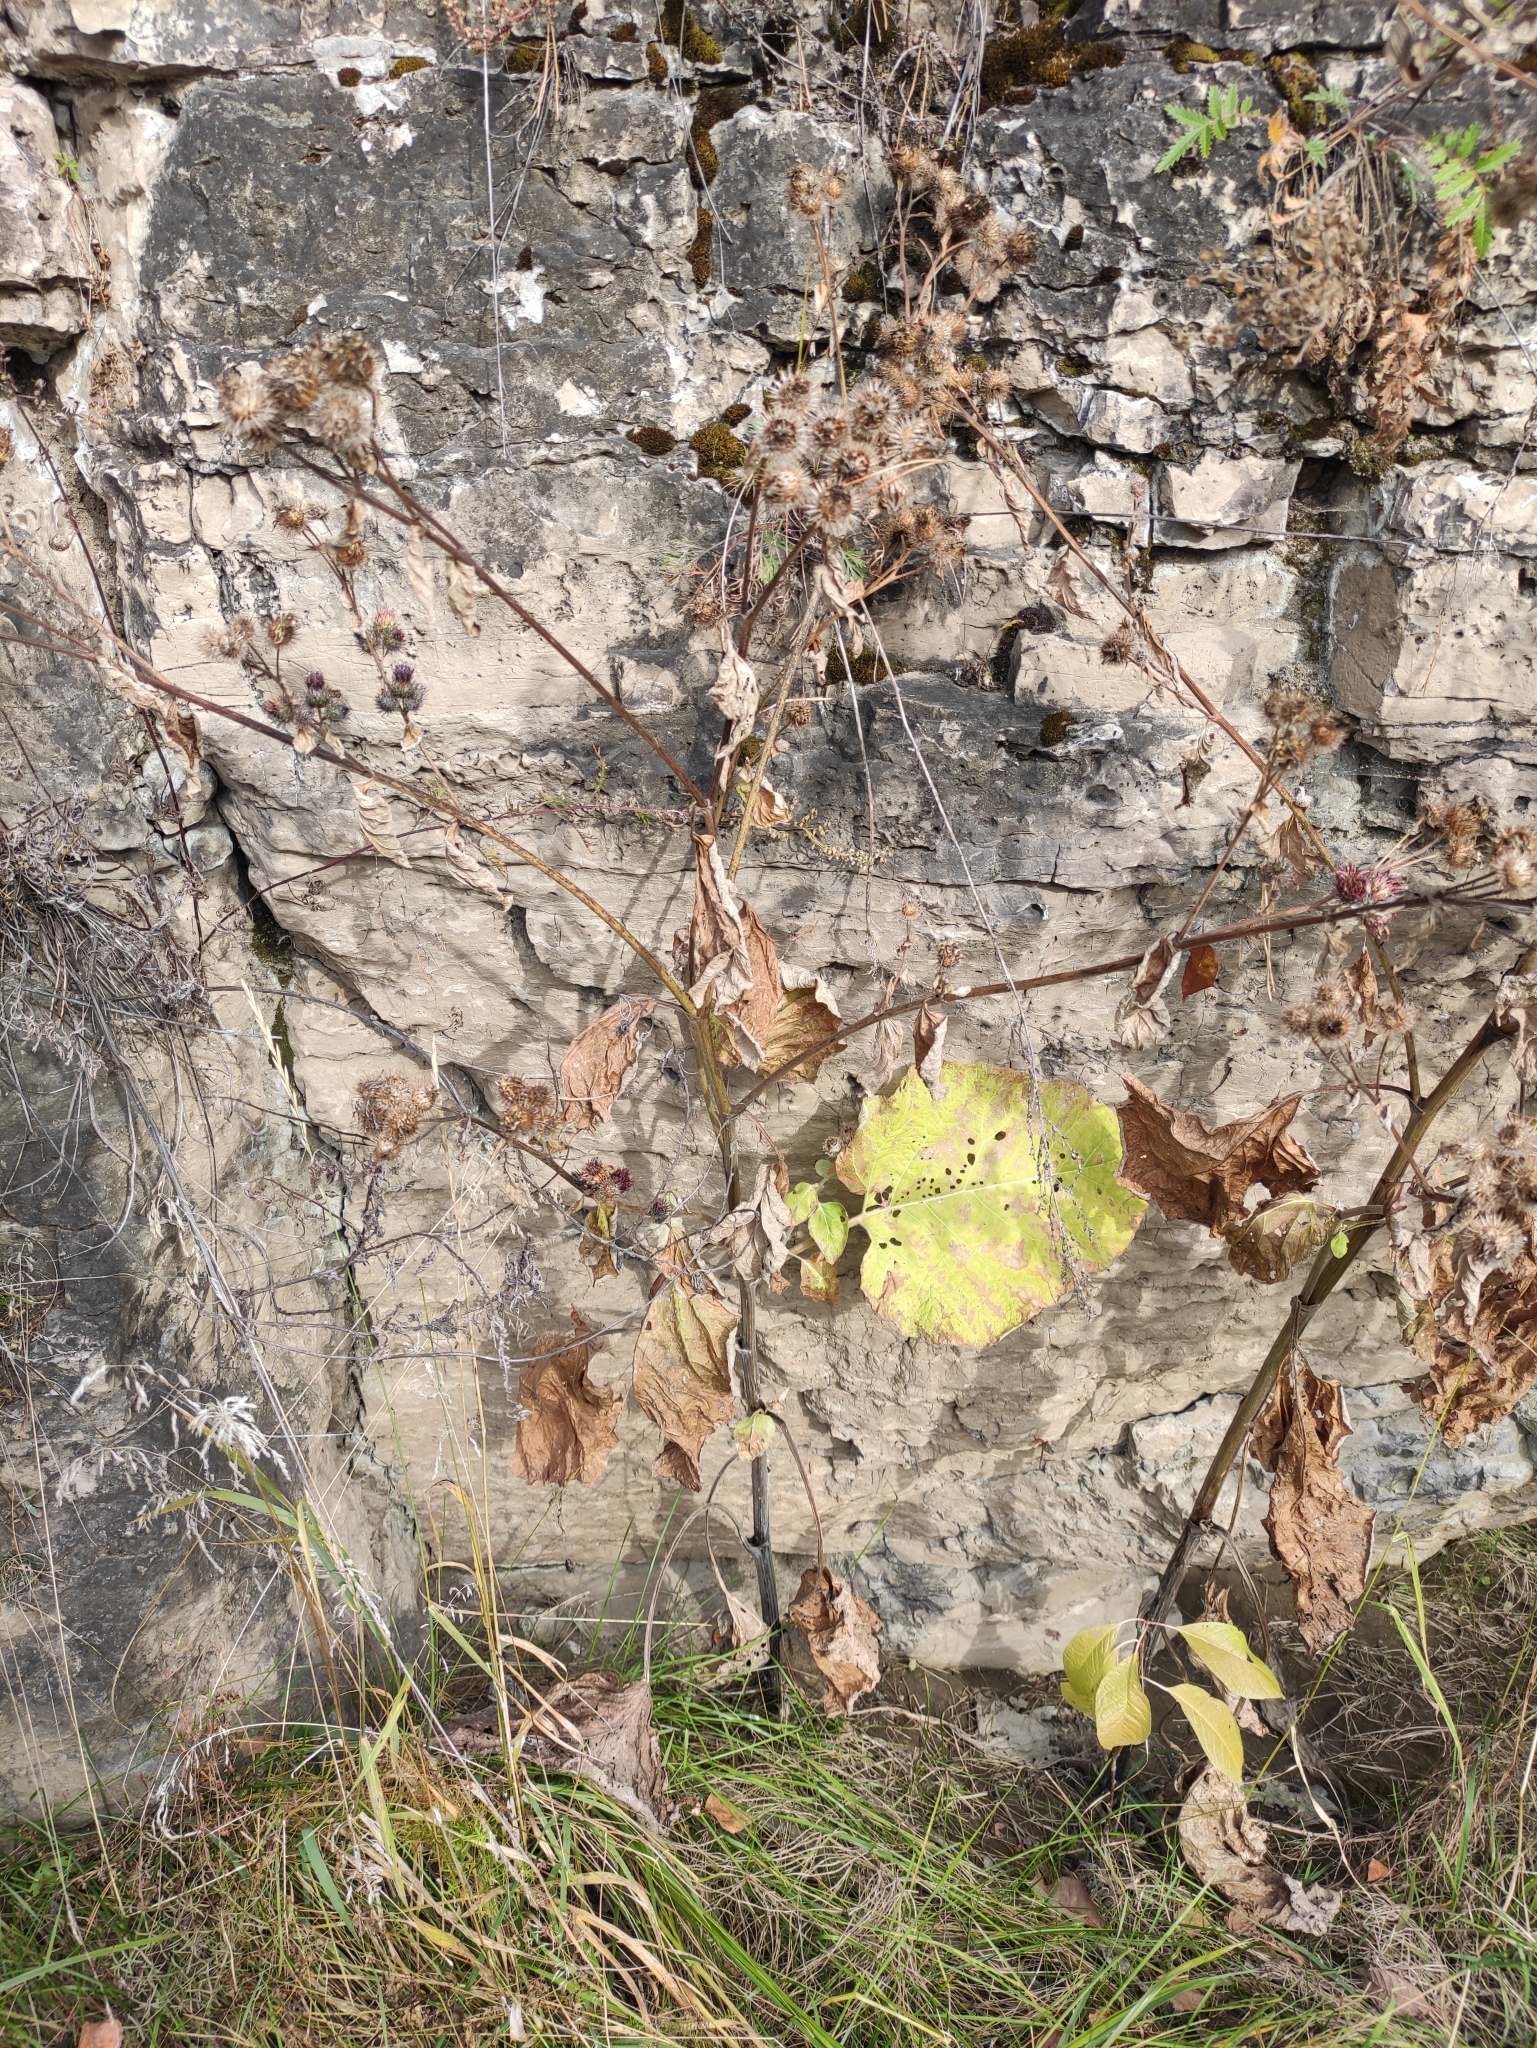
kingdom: Plantae
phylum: Tracheophyta
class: Magnoliopsida
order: Asterales
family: Asteraceae
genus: Arctium
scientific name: Arctium tomentosum
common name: Woolly burdock
